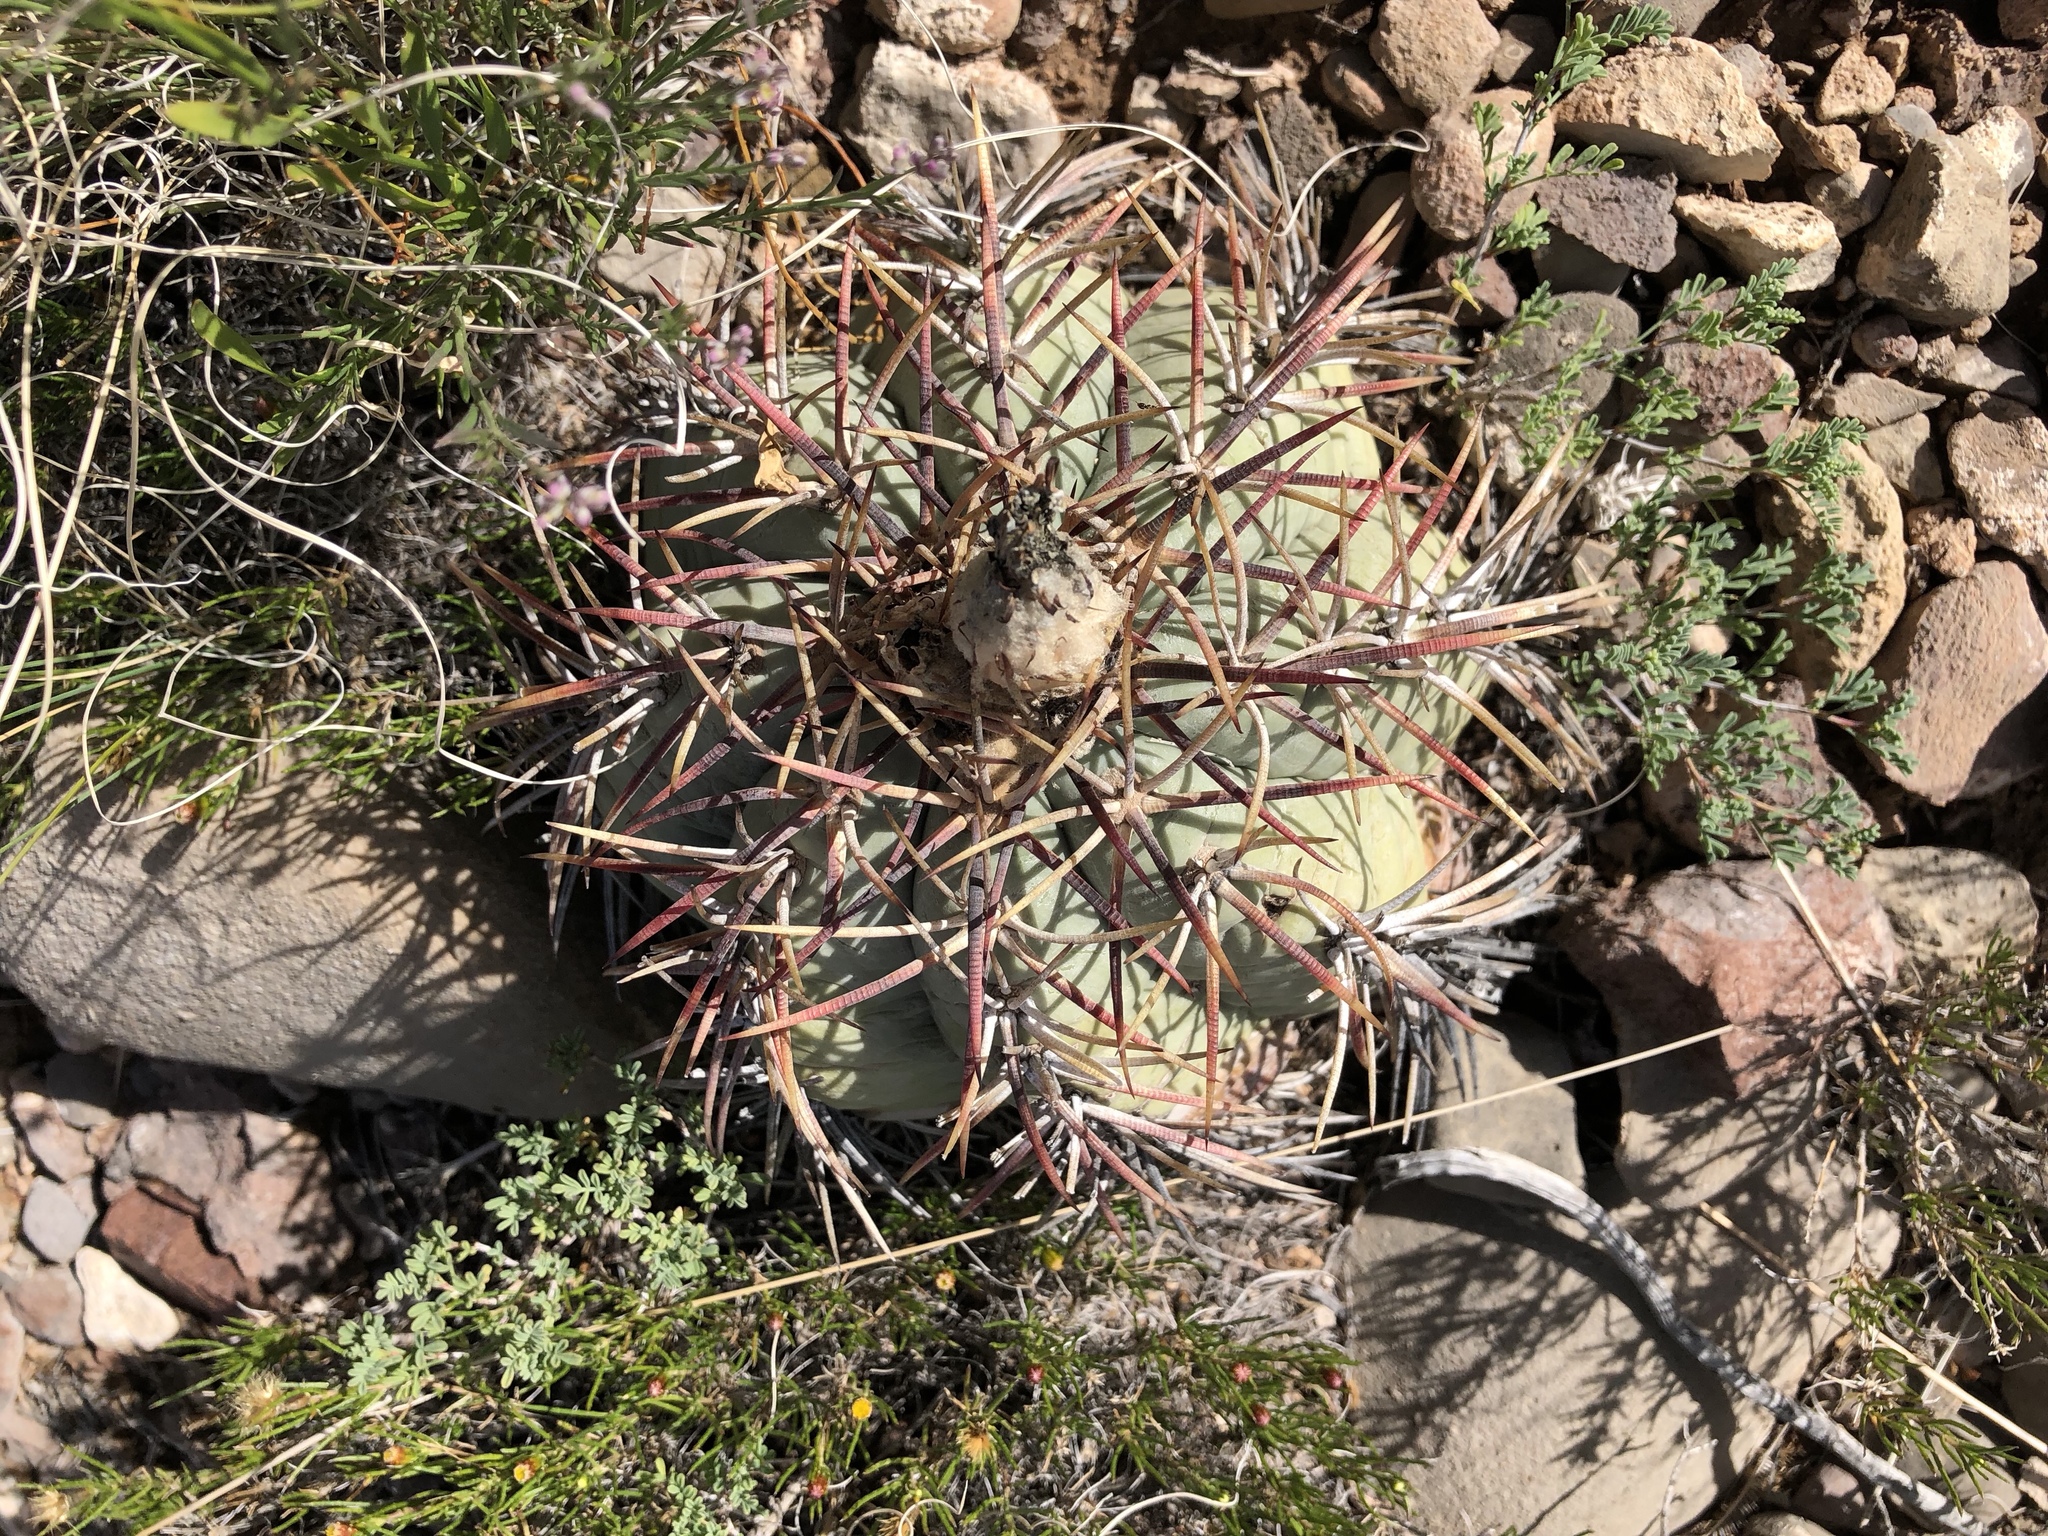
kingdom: Plantae
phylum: Tracheophyta
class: Magnoliopsida
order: Caryophyllales
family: Cactaceae
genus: Echinocactus
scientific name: Echinocactus horizonthalonius
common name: Devilshead
